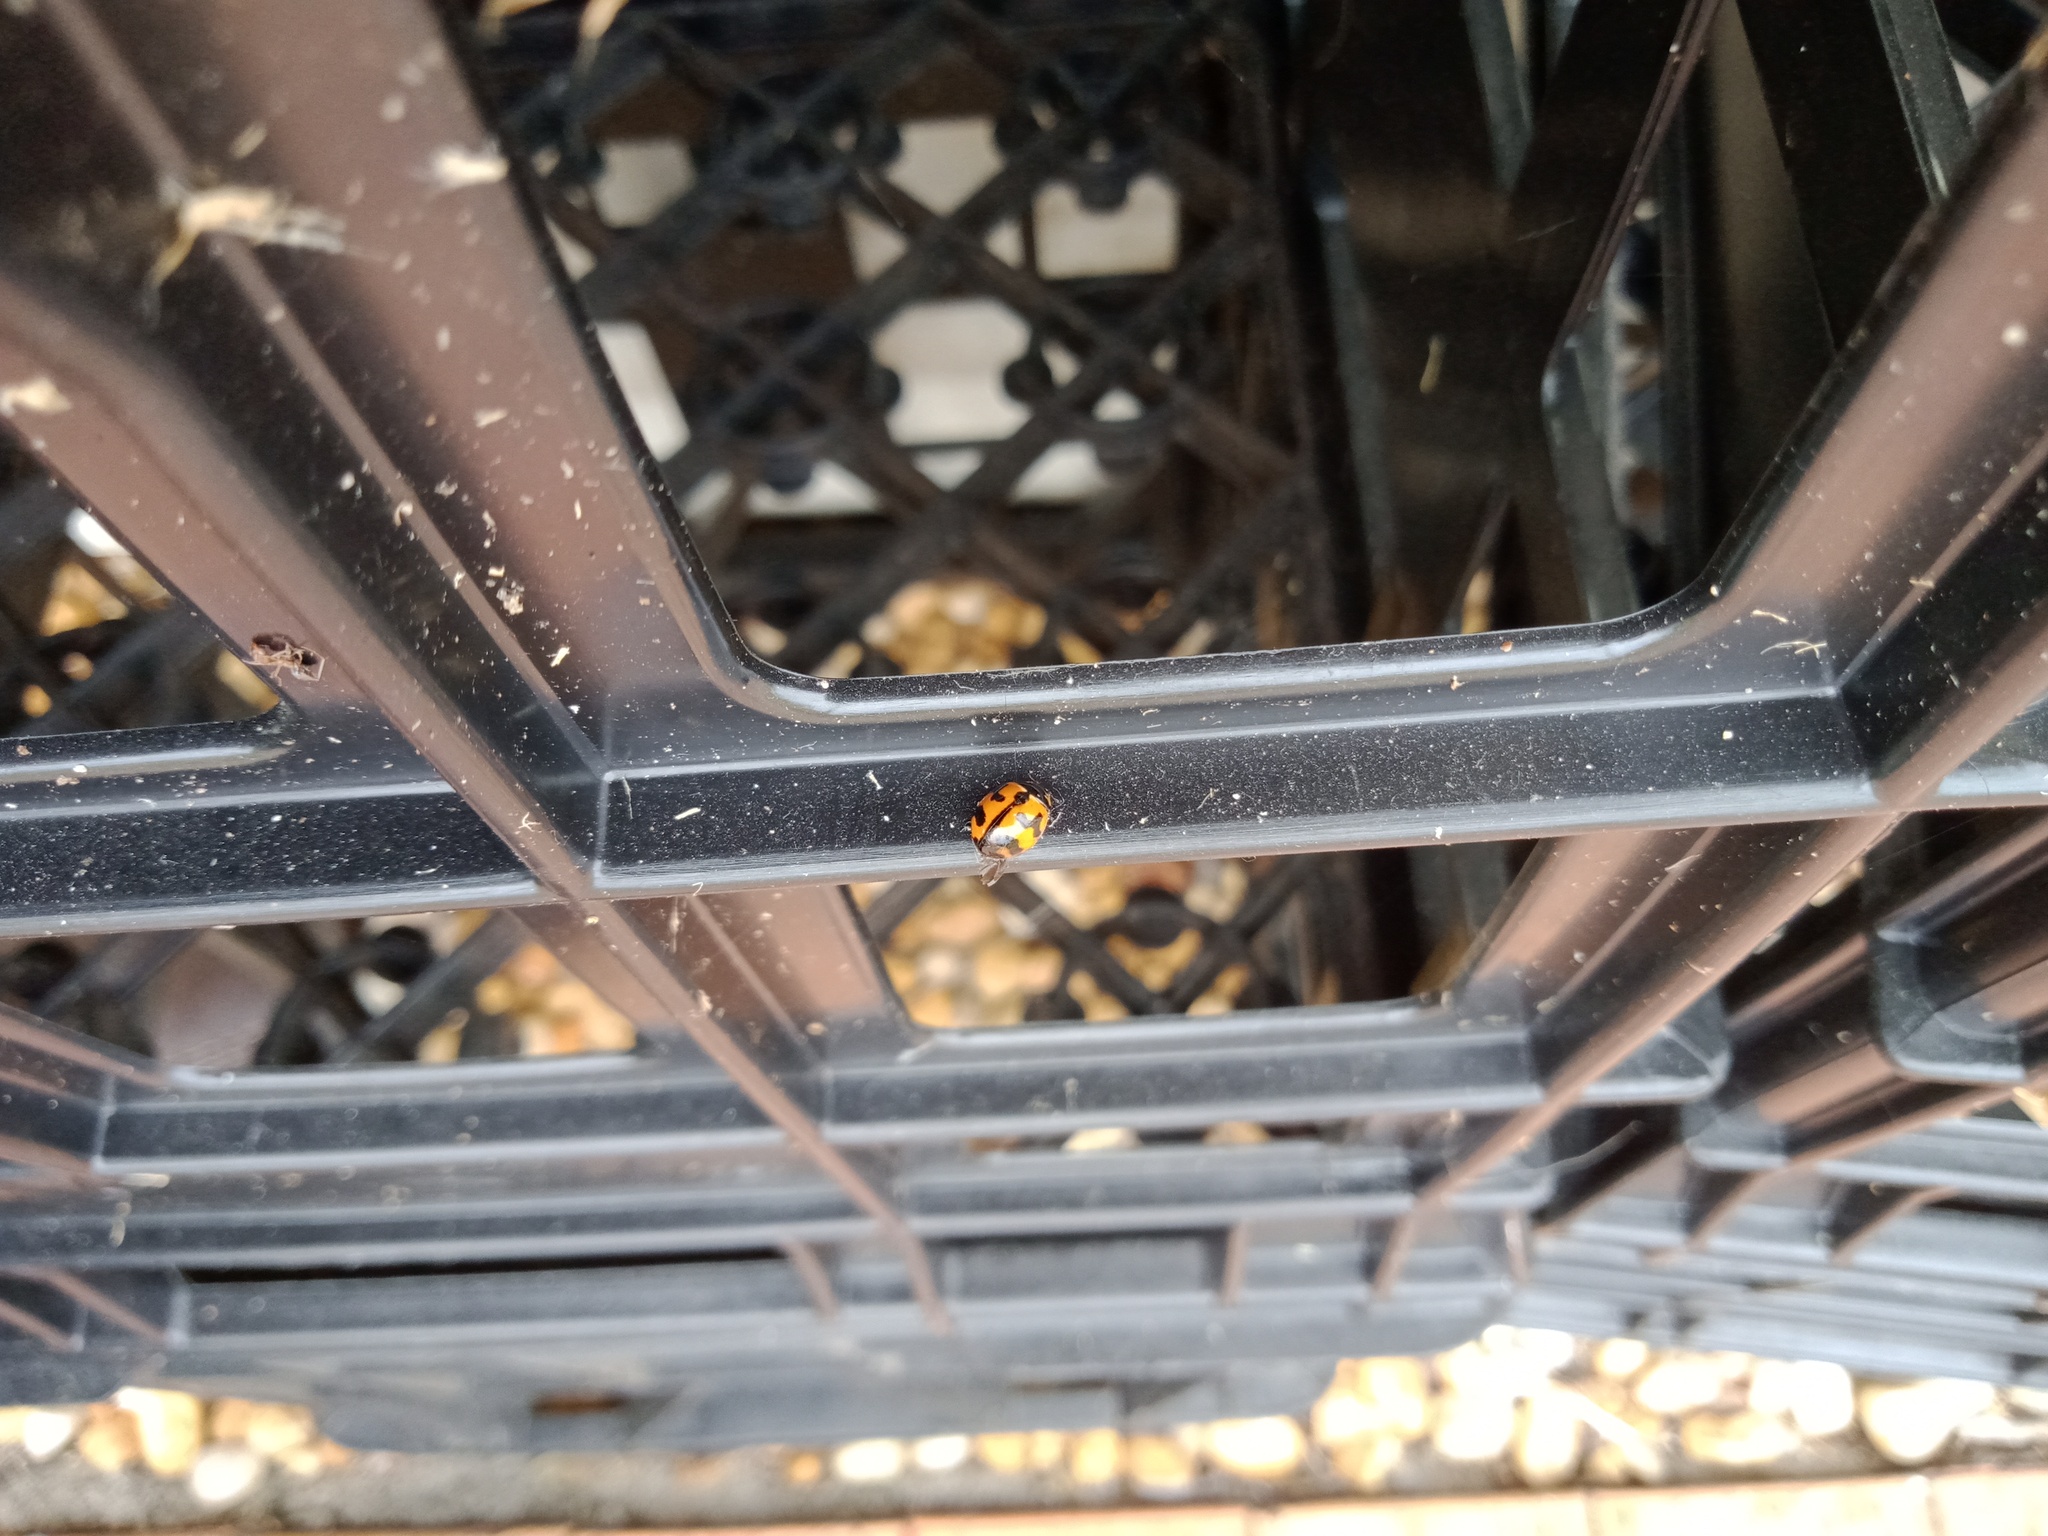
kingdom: Animalia
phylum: Arthropoda
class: Insecta
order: Coleoptera
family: Coccinellidae
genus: Coccinella
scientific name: Coccinella transversalis
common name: Transverse lady beetle
